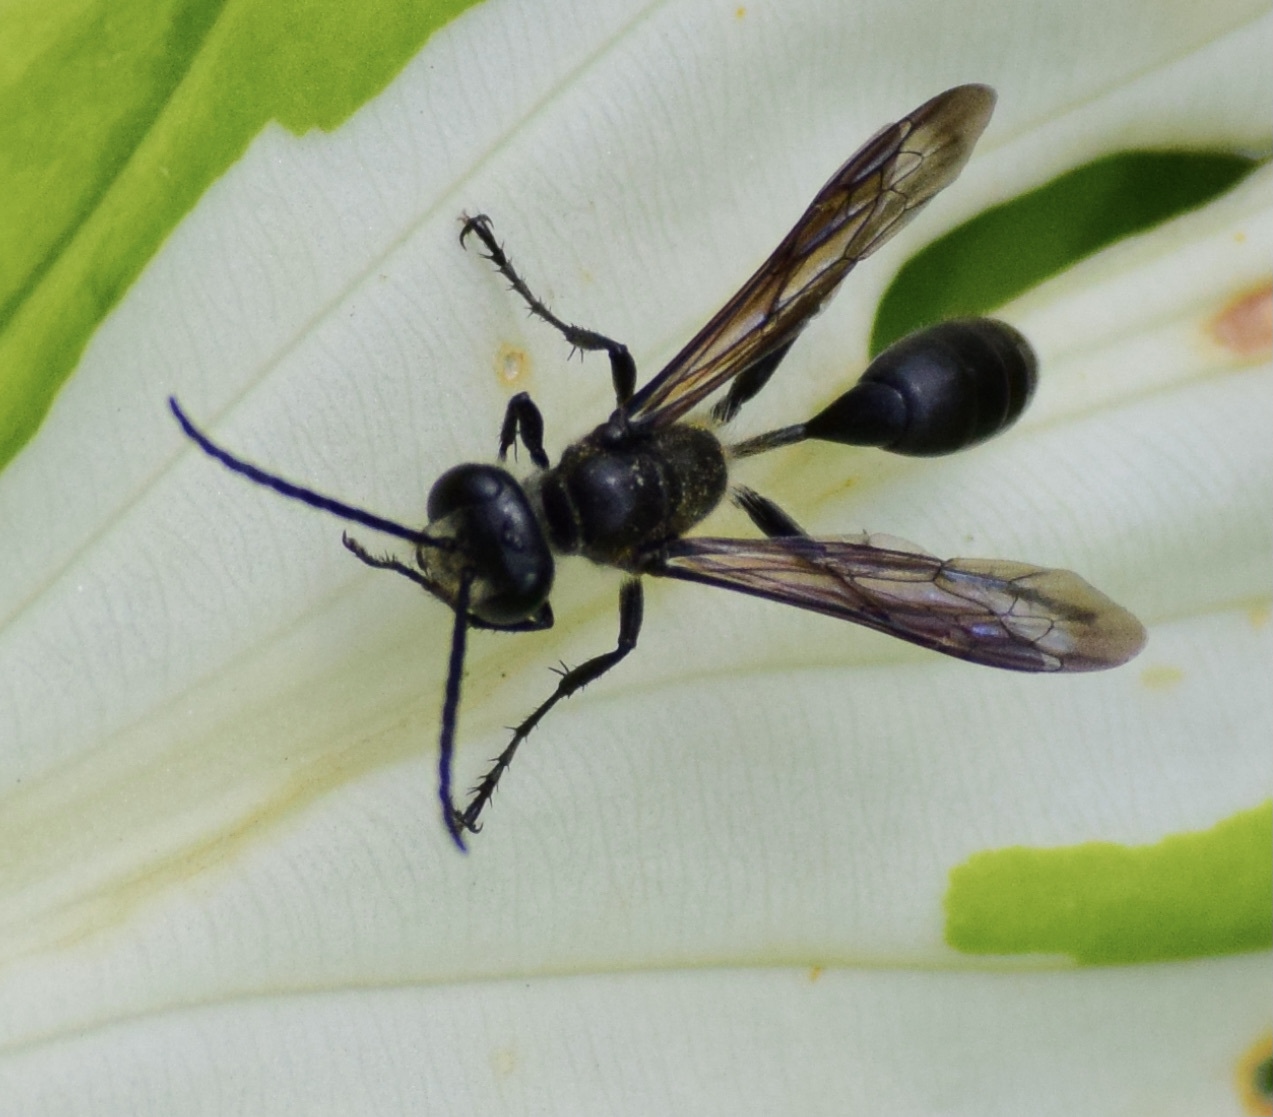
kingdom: Animalia
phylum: Arthropoda
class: Insecta
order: Hymenoptera
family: Sphecidae
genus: Isodontia
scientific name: Isodontia mexicana
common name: Mud dauber
